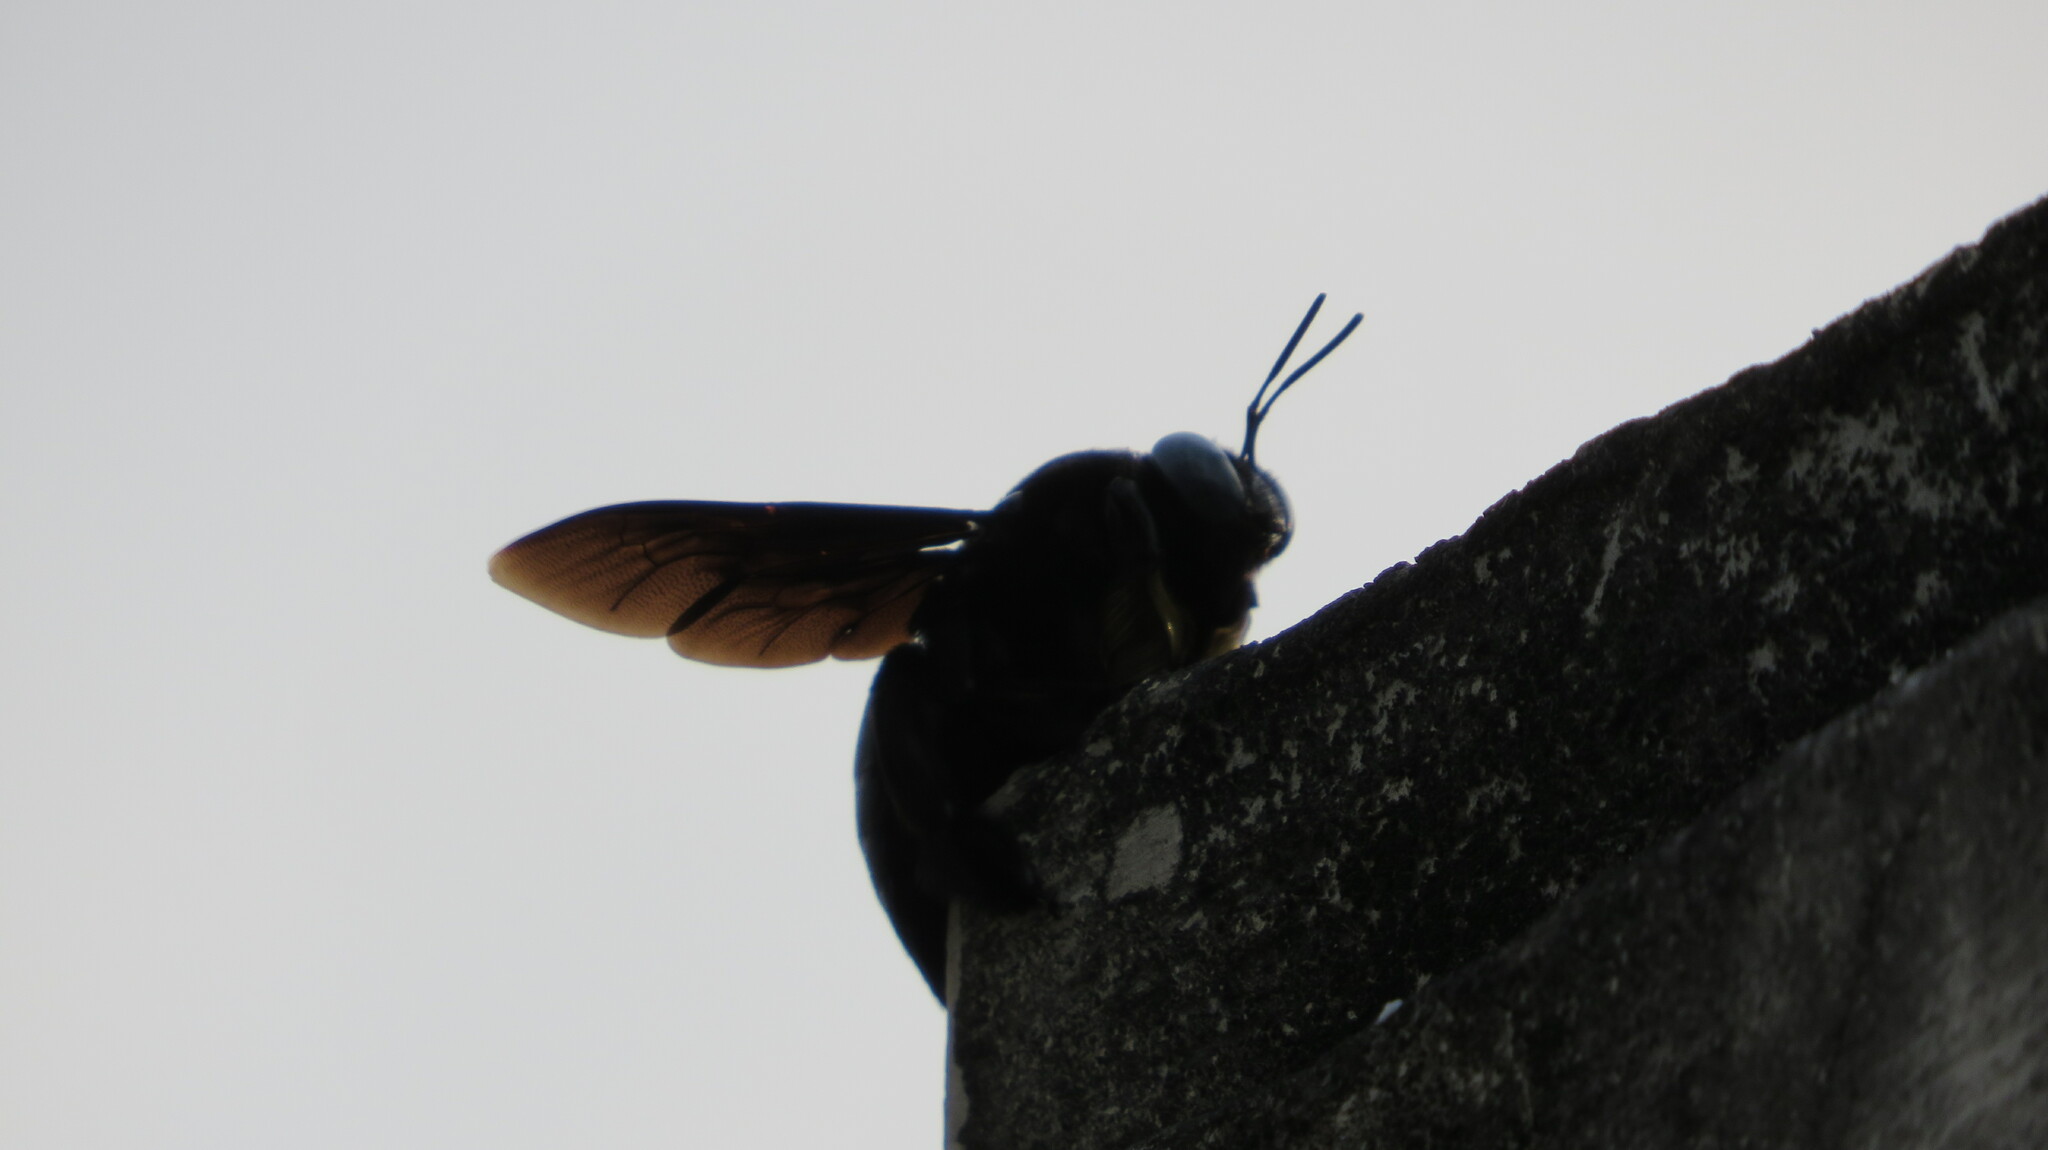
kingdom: Animalia
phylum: Arthropoda
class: Insecta
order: Hymenoptera
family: Apidae
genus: Xylocopa
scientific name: Xylocopa tenuiscapa
